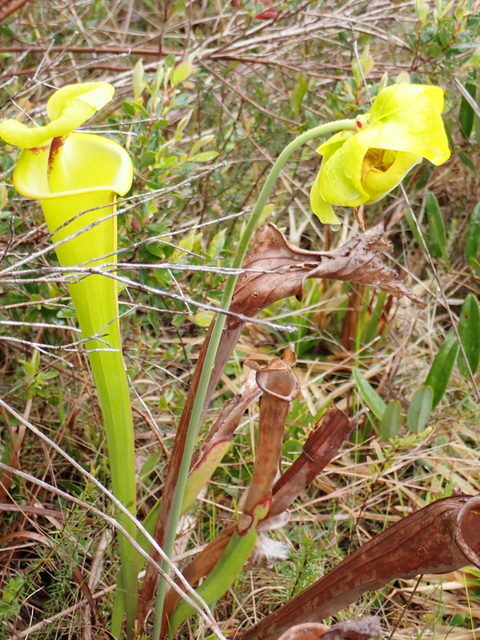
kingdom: Plantae
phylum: Tracheophyta
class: Magnoliopsida
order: Ericales
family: Sarraceniaceae
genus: Sarracenia
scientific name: Sarracenia flava
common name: Trumpets
